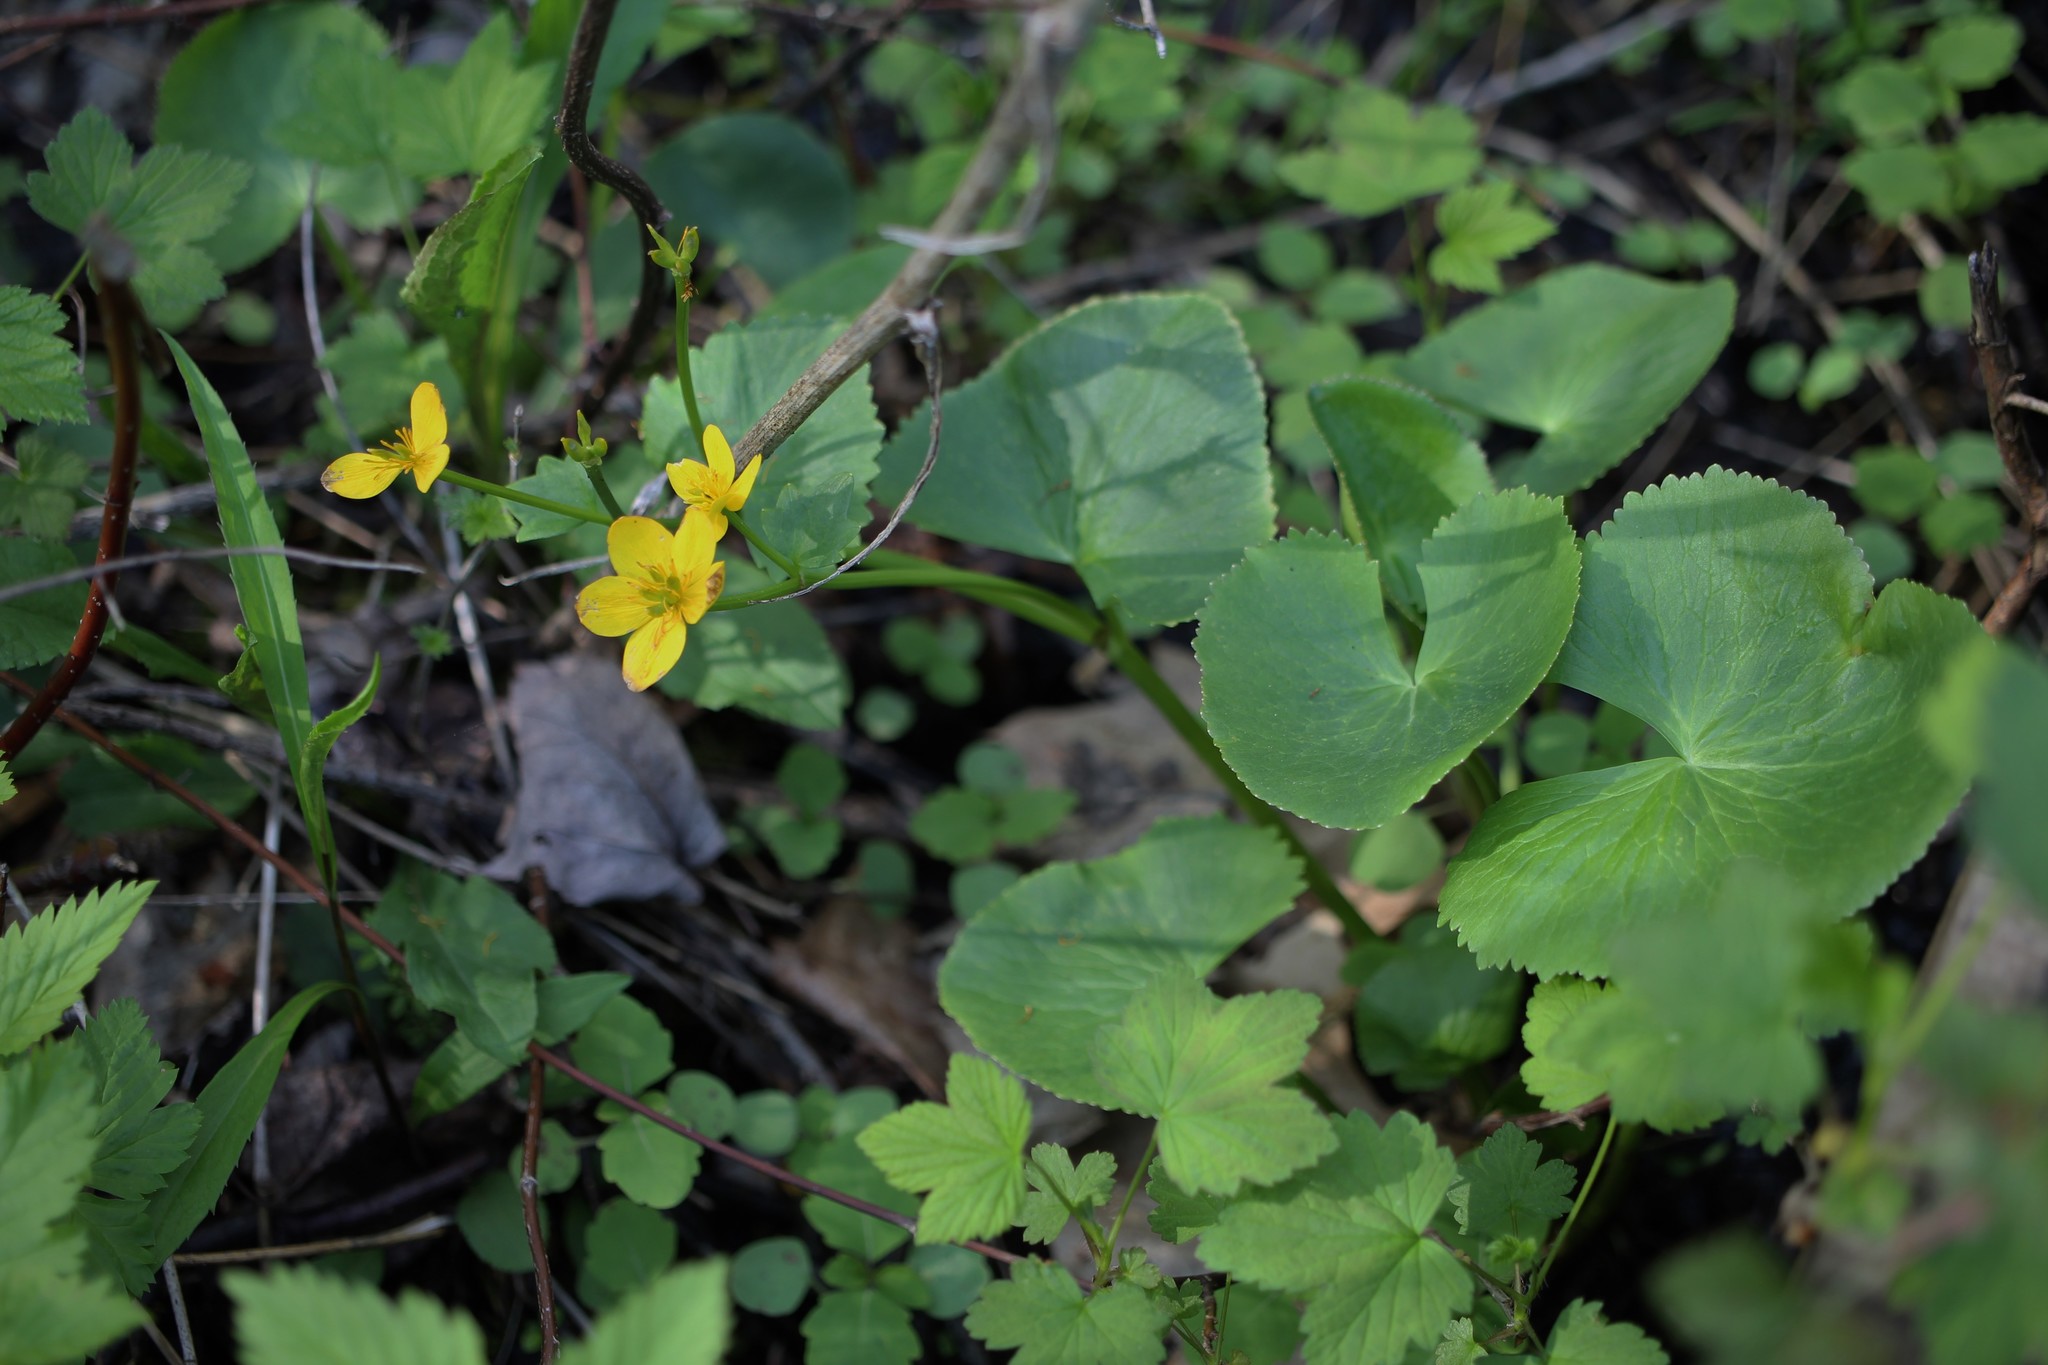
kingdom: Plantae
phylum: Tracheophyta
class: Magnoliopsida
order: Ranunculales
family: Ranunculaceae
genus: Caltha
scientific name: Caltha palustris
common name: Marsh marigold
